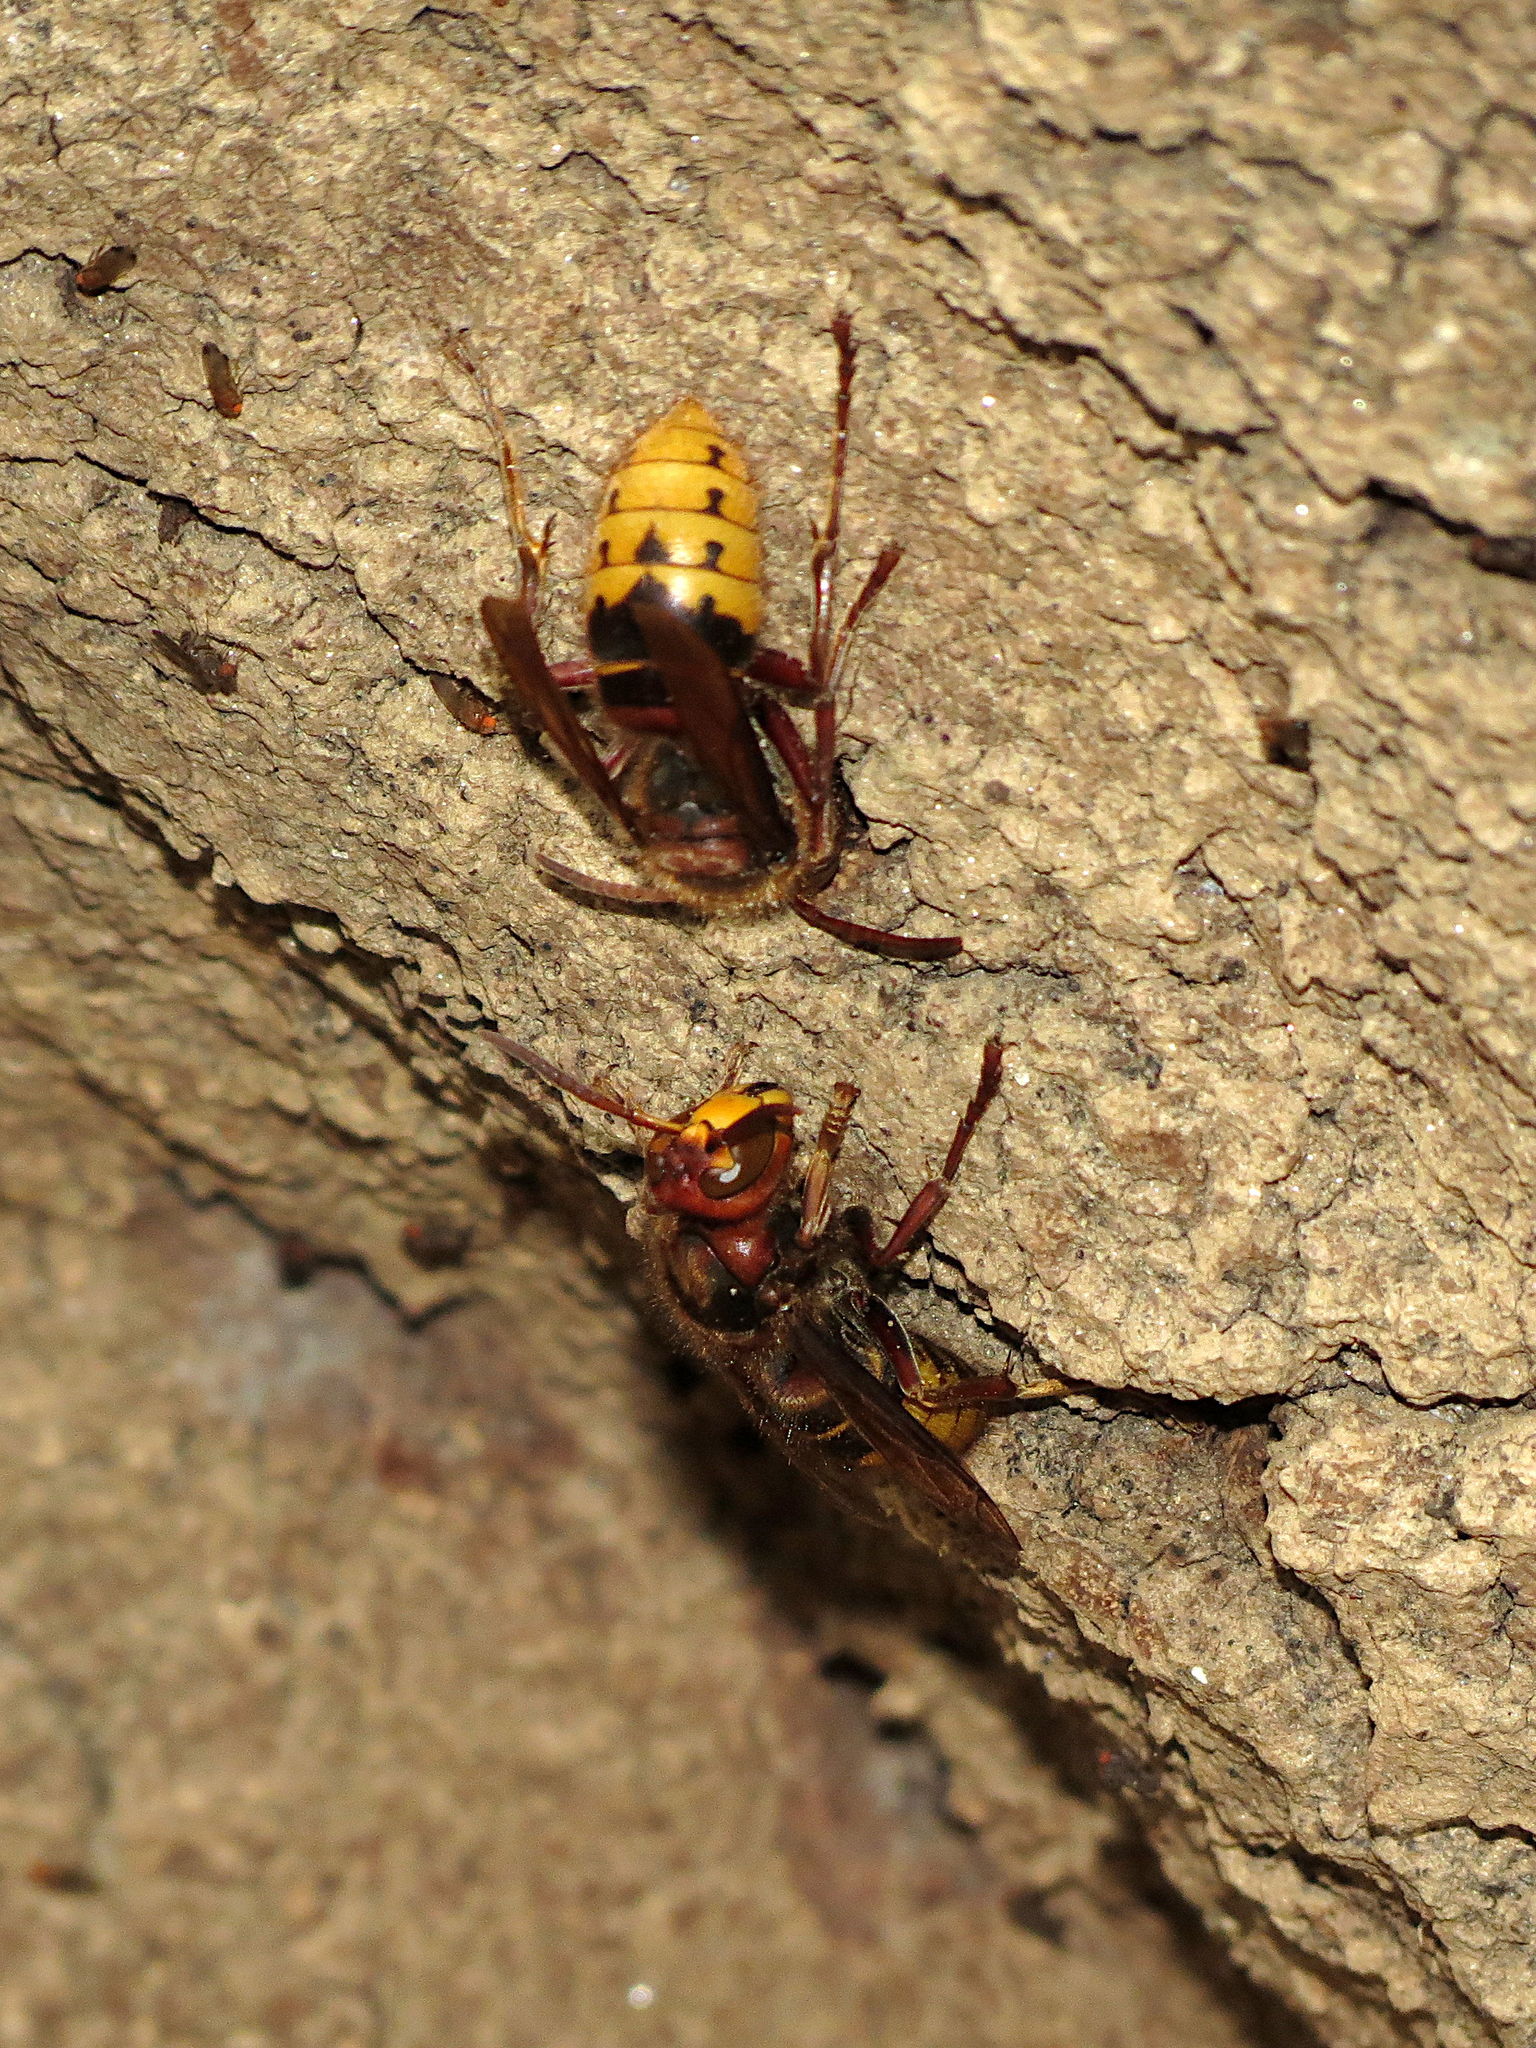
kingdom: Animalia
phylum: Arthropoda
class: Insecta
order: Hymenoptera
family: Vespidae
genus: Vespa
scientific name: Vespa crabro
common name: Hornet
